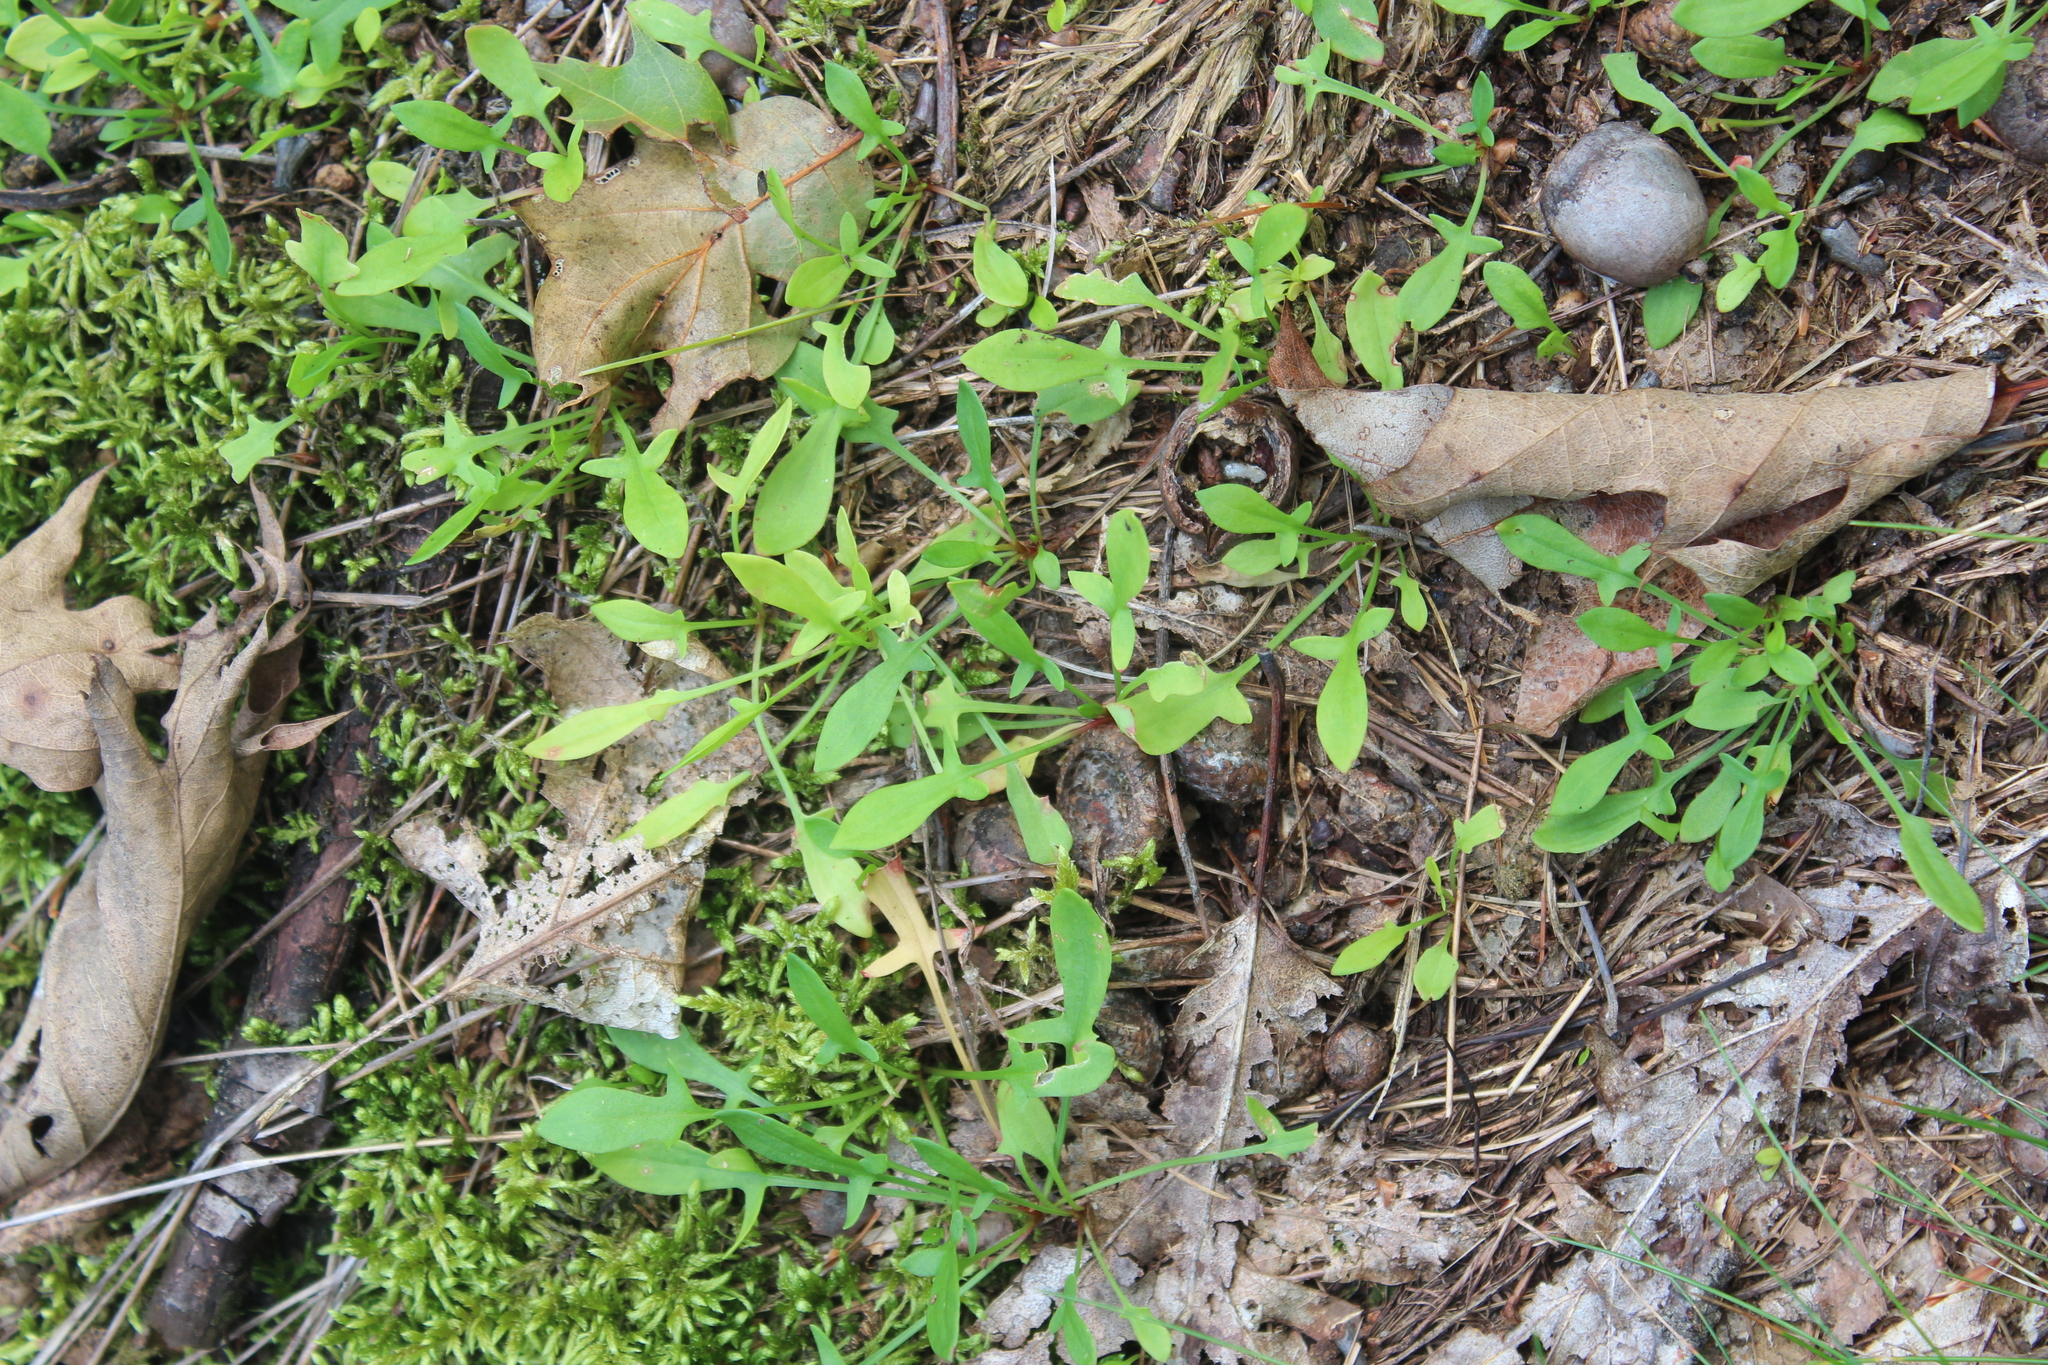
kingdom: Plantae
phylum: Tracheophyta
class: Magnoliopsida
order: Caryophyllales
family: Polygonaceae
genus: Rumex
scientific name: Rumex acetosella
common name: Common sheep sorrel
